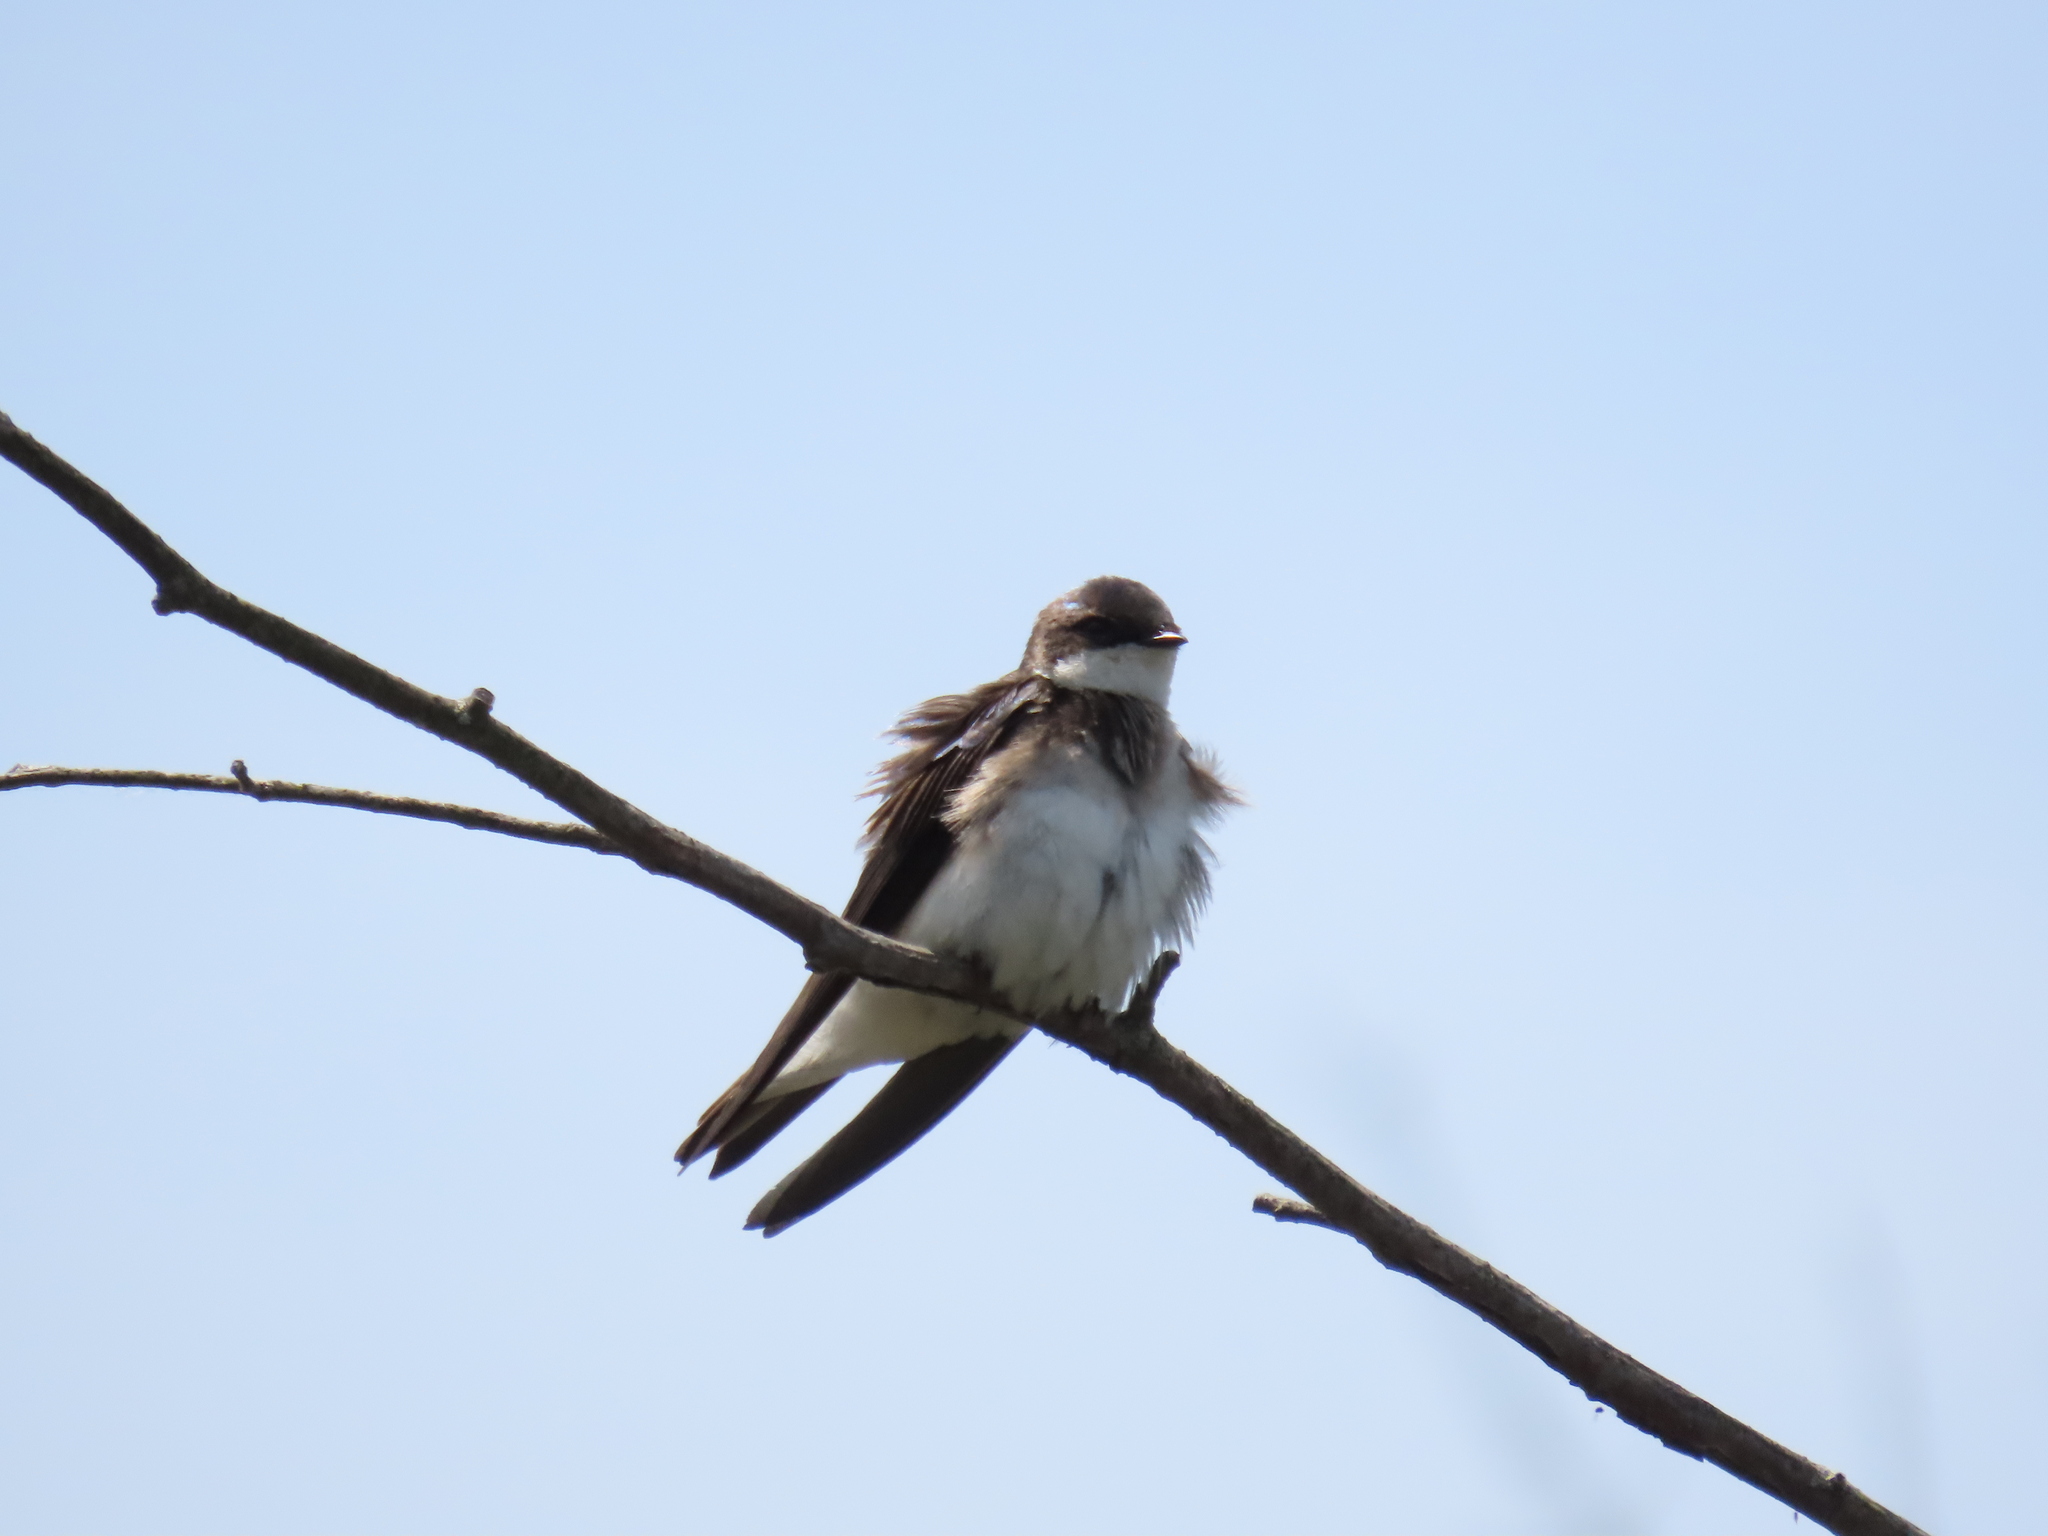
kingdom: Animalia
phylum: Chordata
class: Aves
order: Passeriformes
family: Hirundinidae
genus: Riparia
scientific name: Riparia riparia
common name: Sand martin
